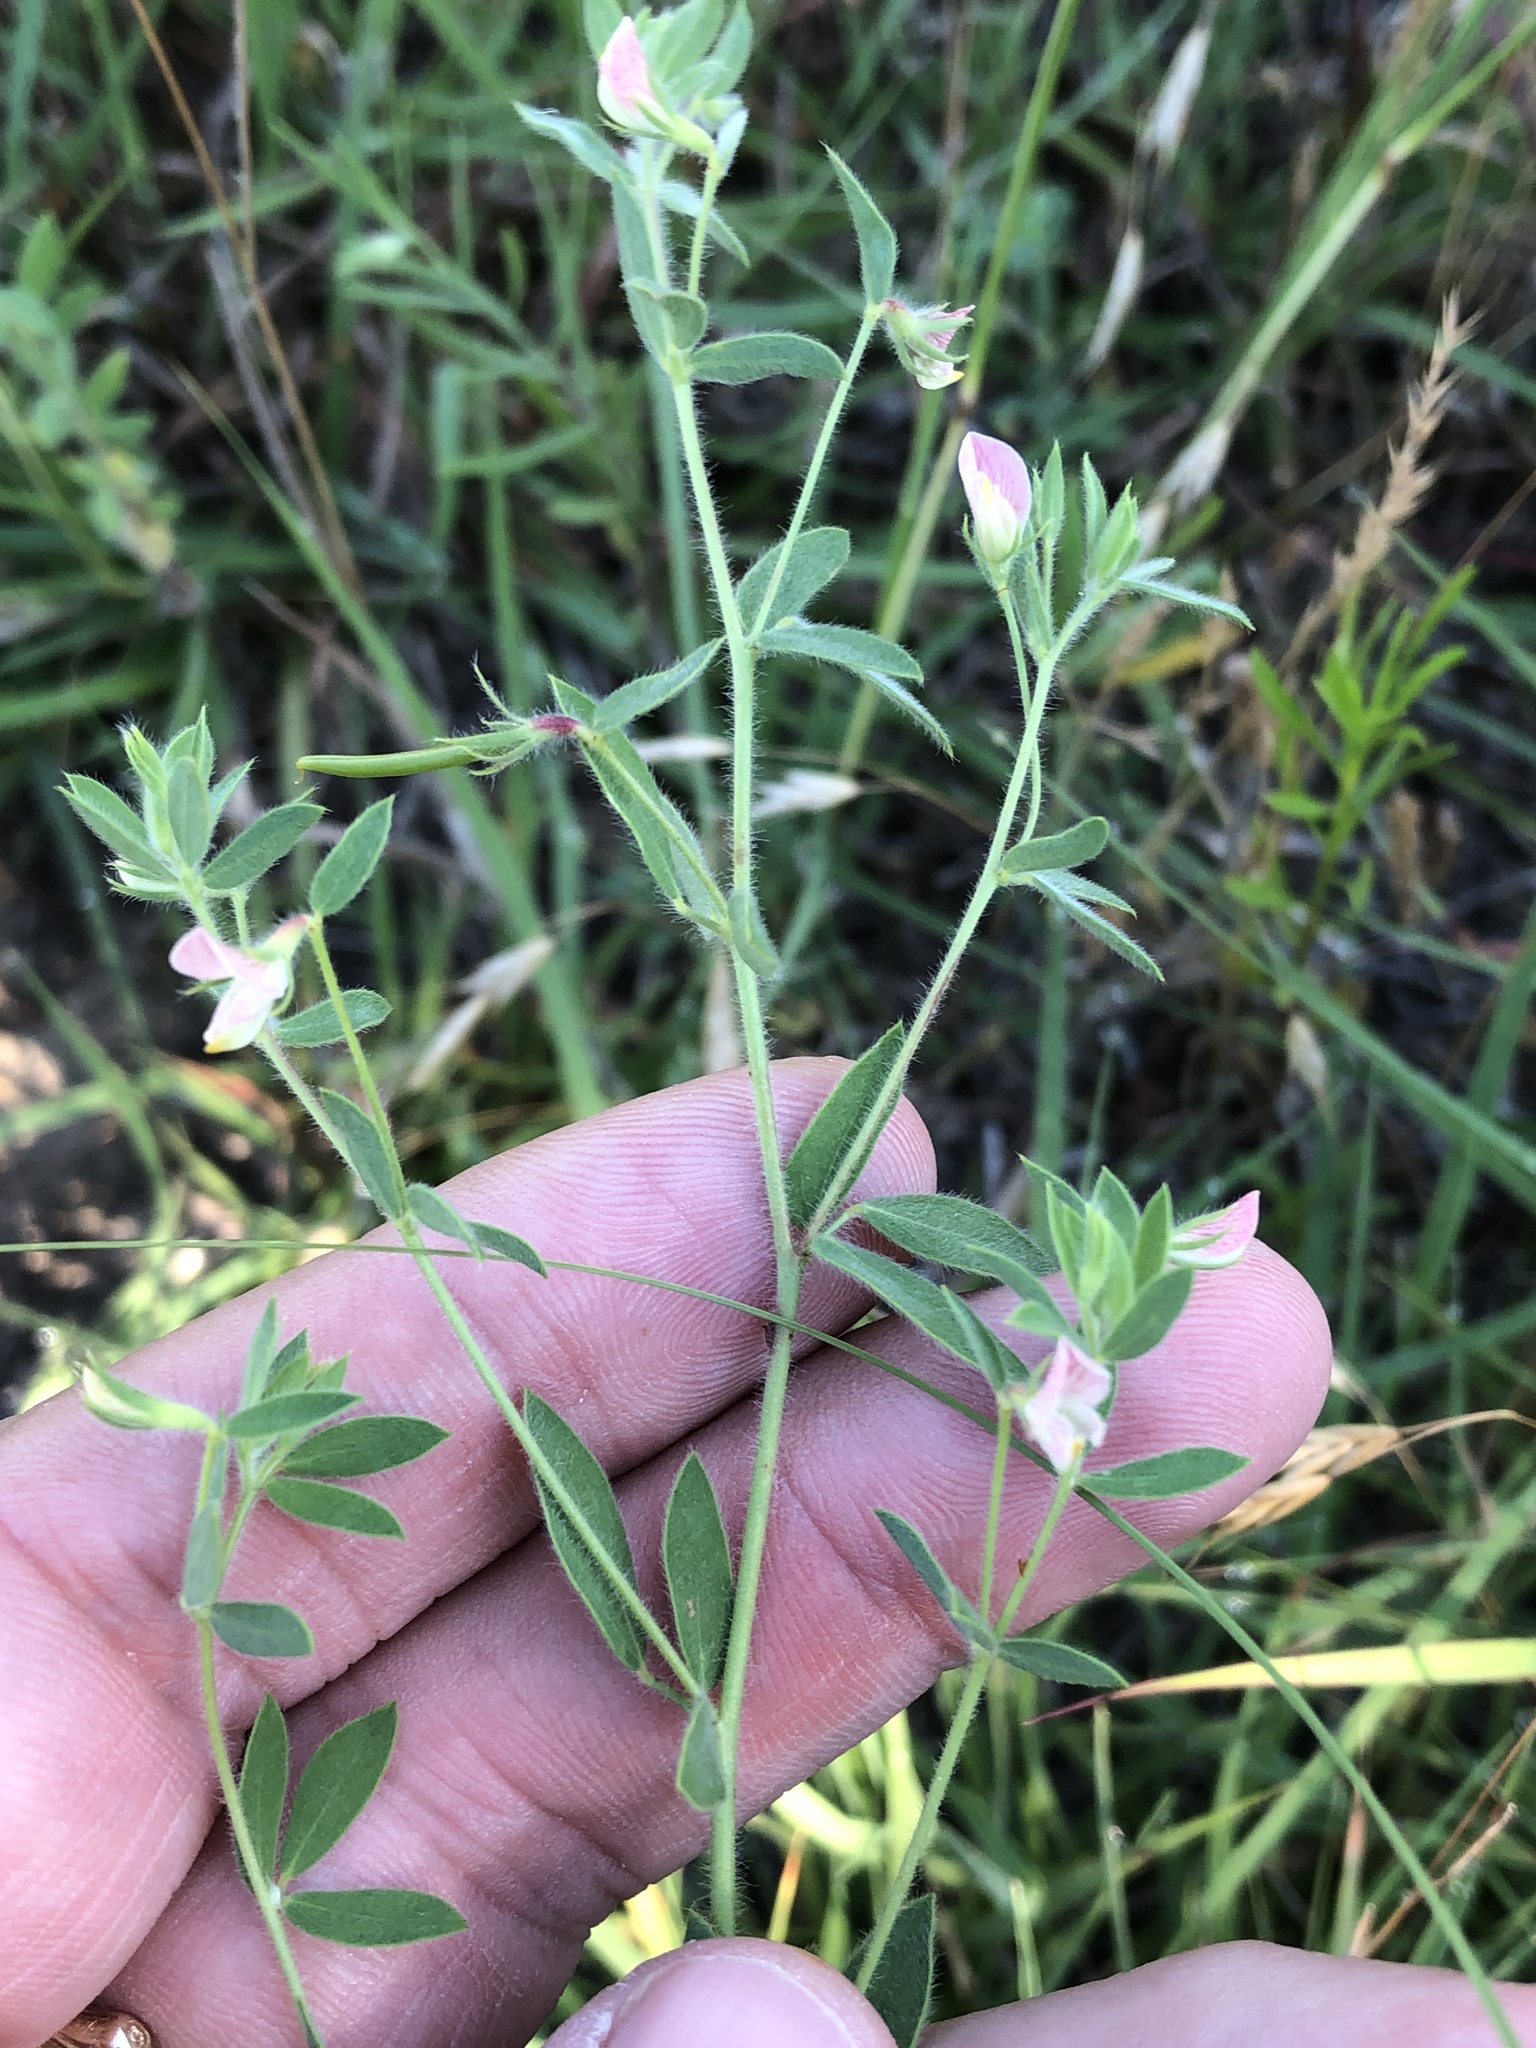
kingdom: Plantae
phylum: Tracheophyta
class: Magnoliopsida
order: Fabales
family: Fabaceae
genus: Acmispon
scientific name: Acmispon americanus
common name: American bird's-foot trefoil
